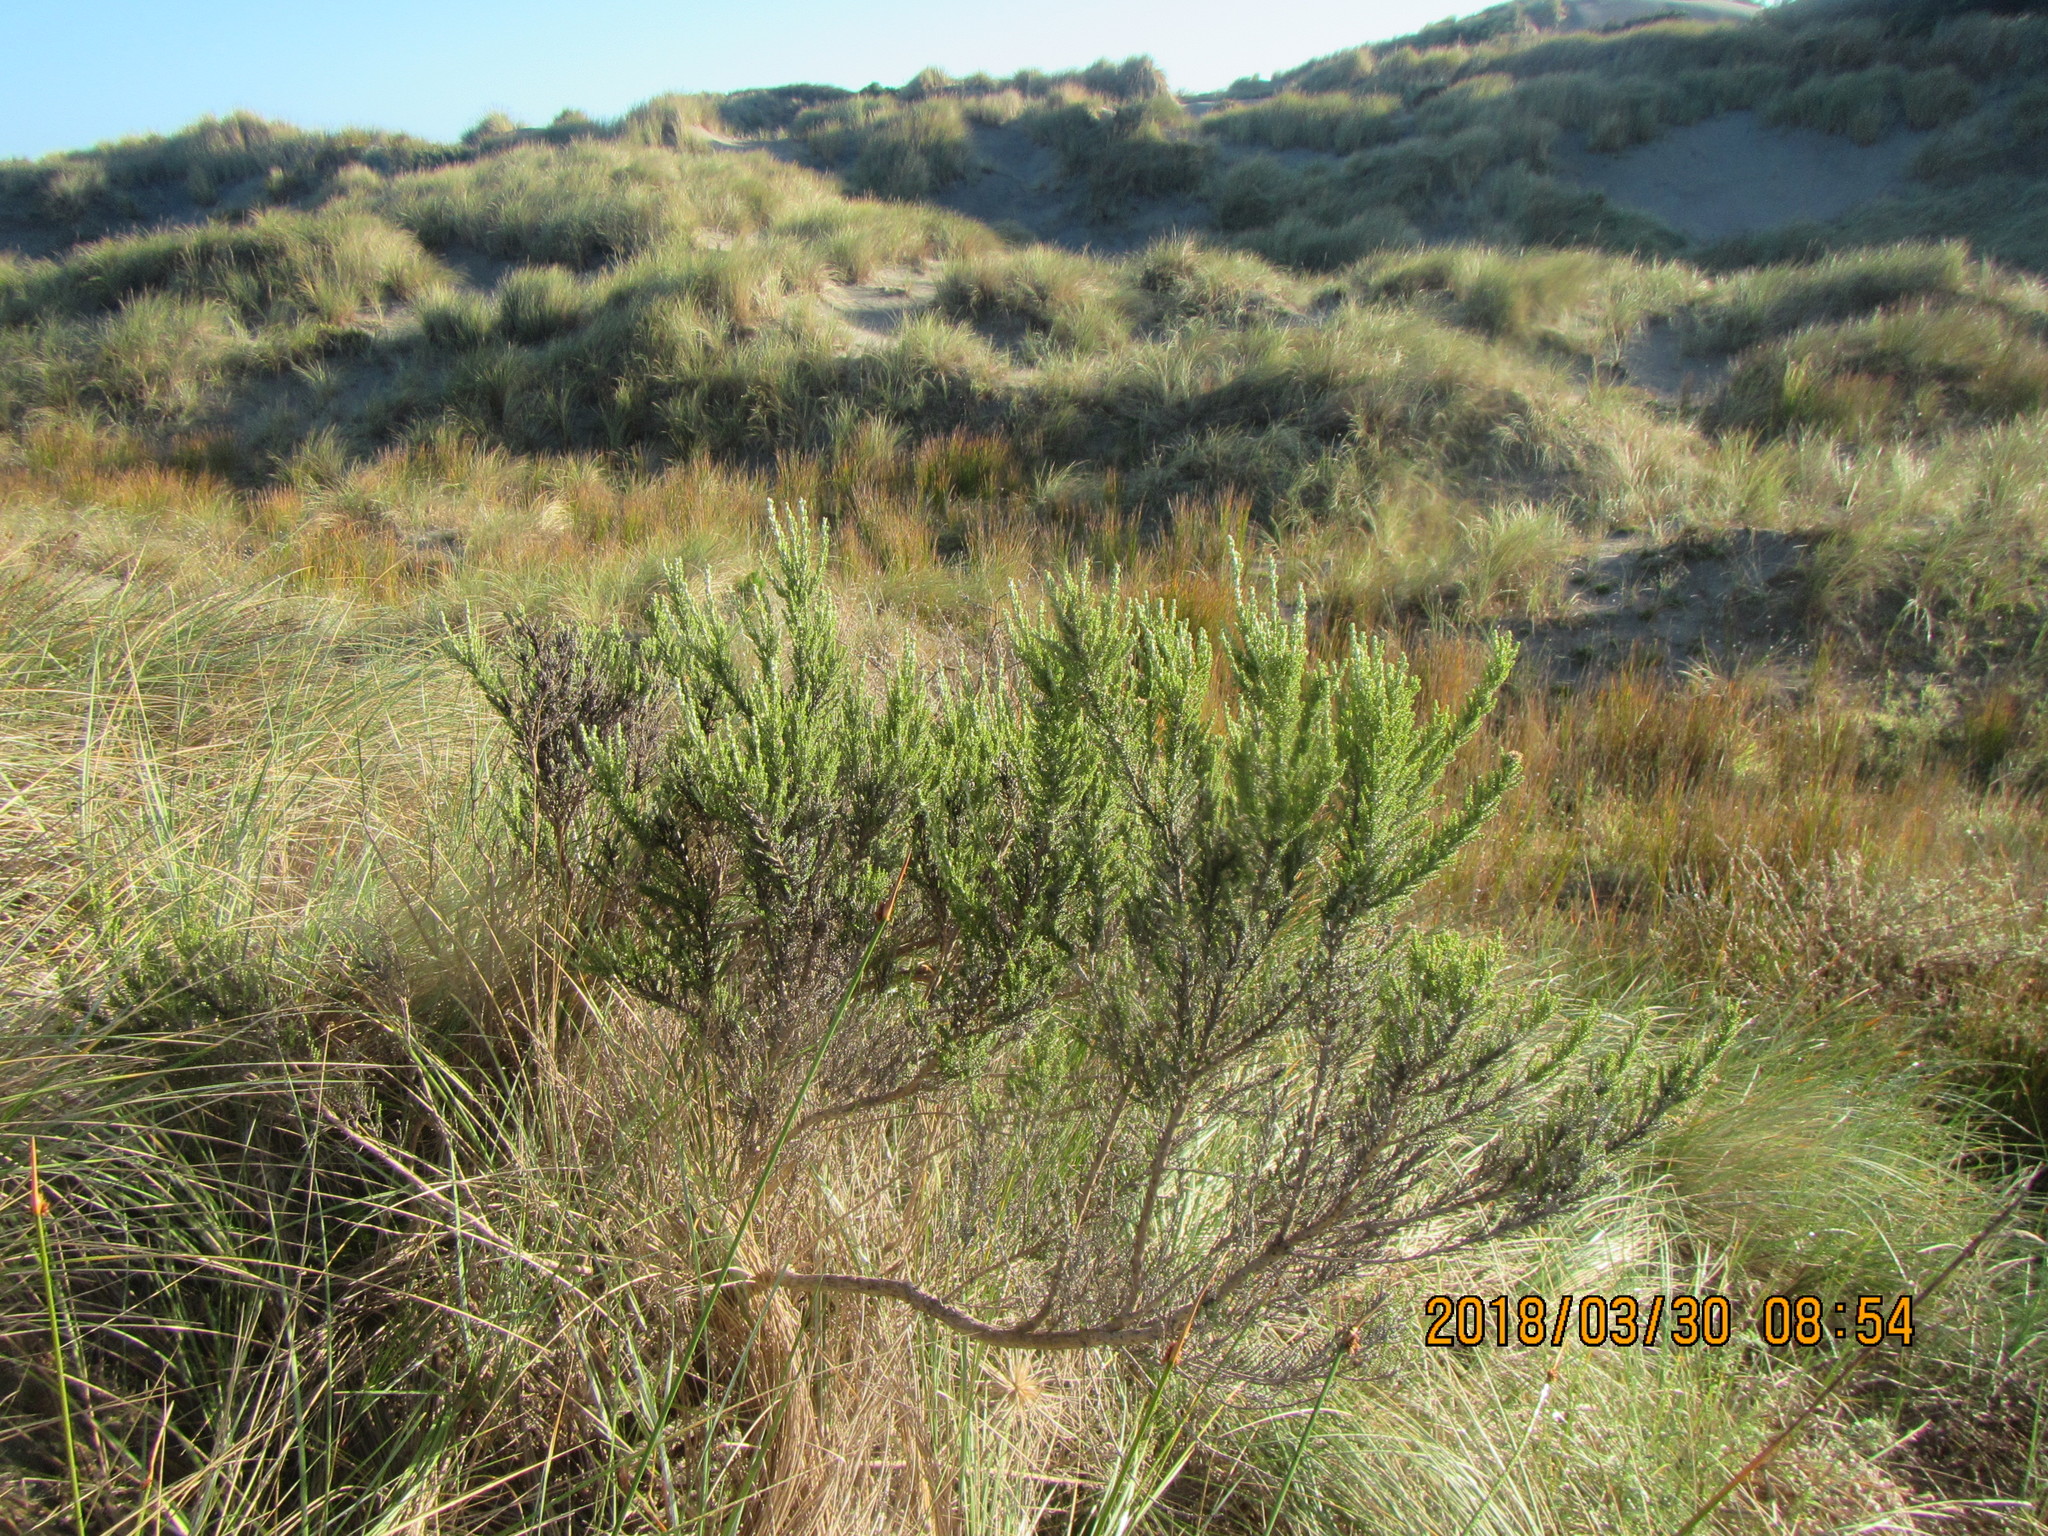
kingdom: Plantae
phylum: Tracheophyta
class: Magnoliopsida
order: Asterales
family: Asteraceae
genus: Ozothamnus
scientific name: Ozothamnus leptophyllus
